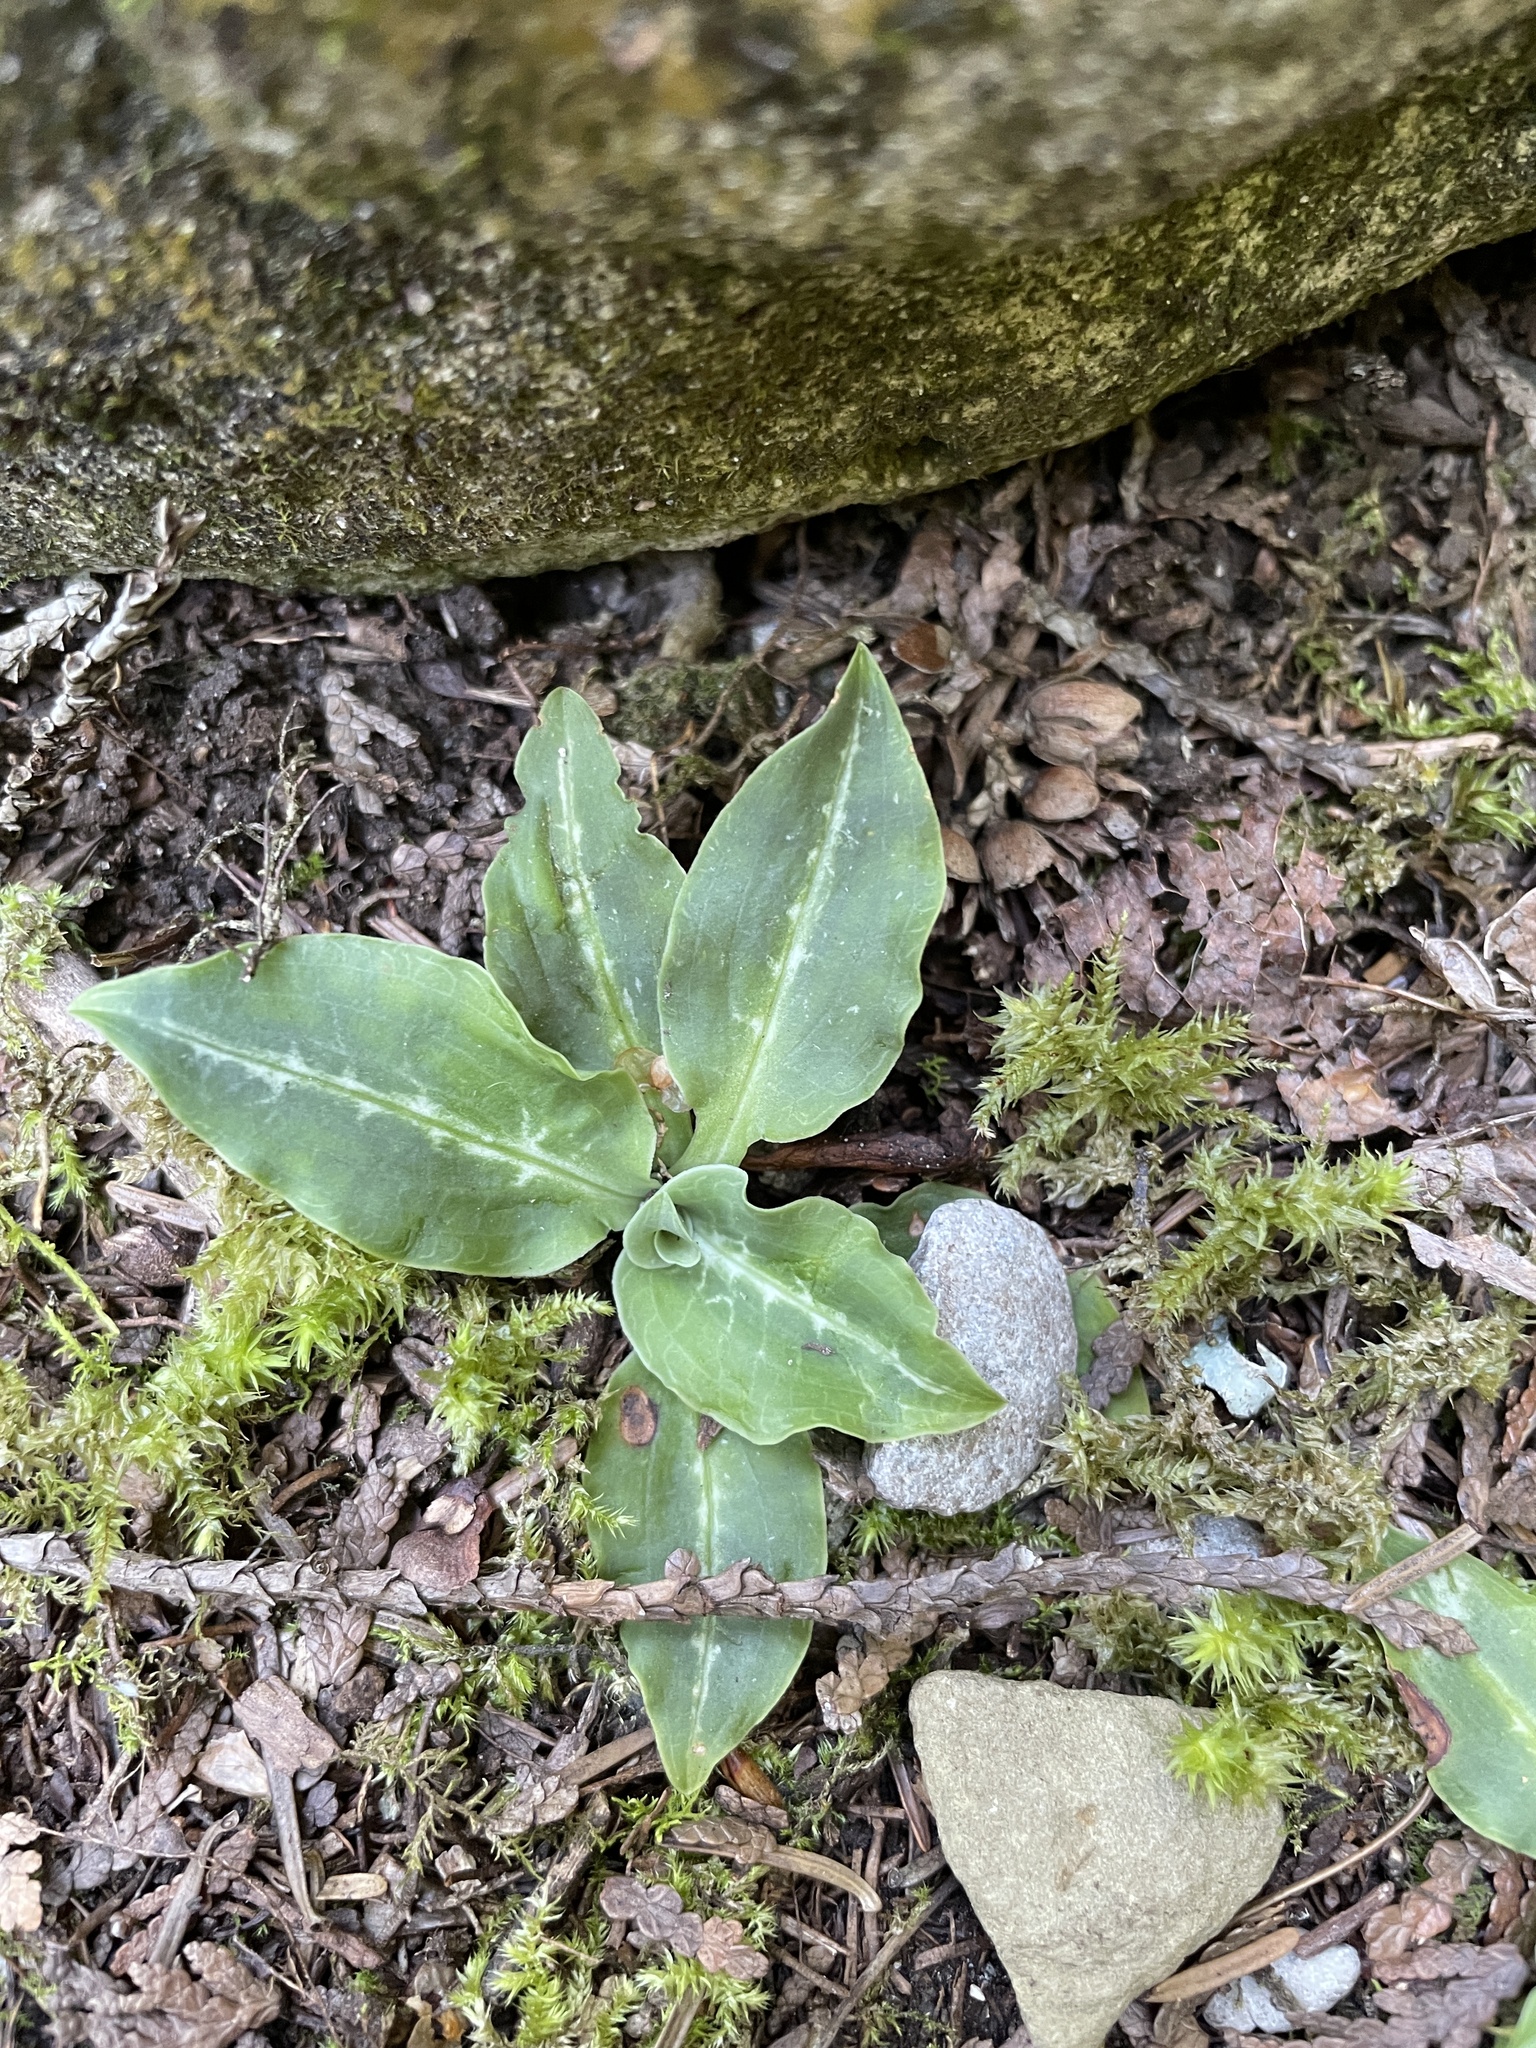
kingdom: Plantae
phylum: Tracheophyta
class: Liliopsida
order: Asparagales
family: Orchidaceae
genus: Goodyera
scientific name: Goodyera oblongifolia
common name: Giant rattlesnake-plantain
